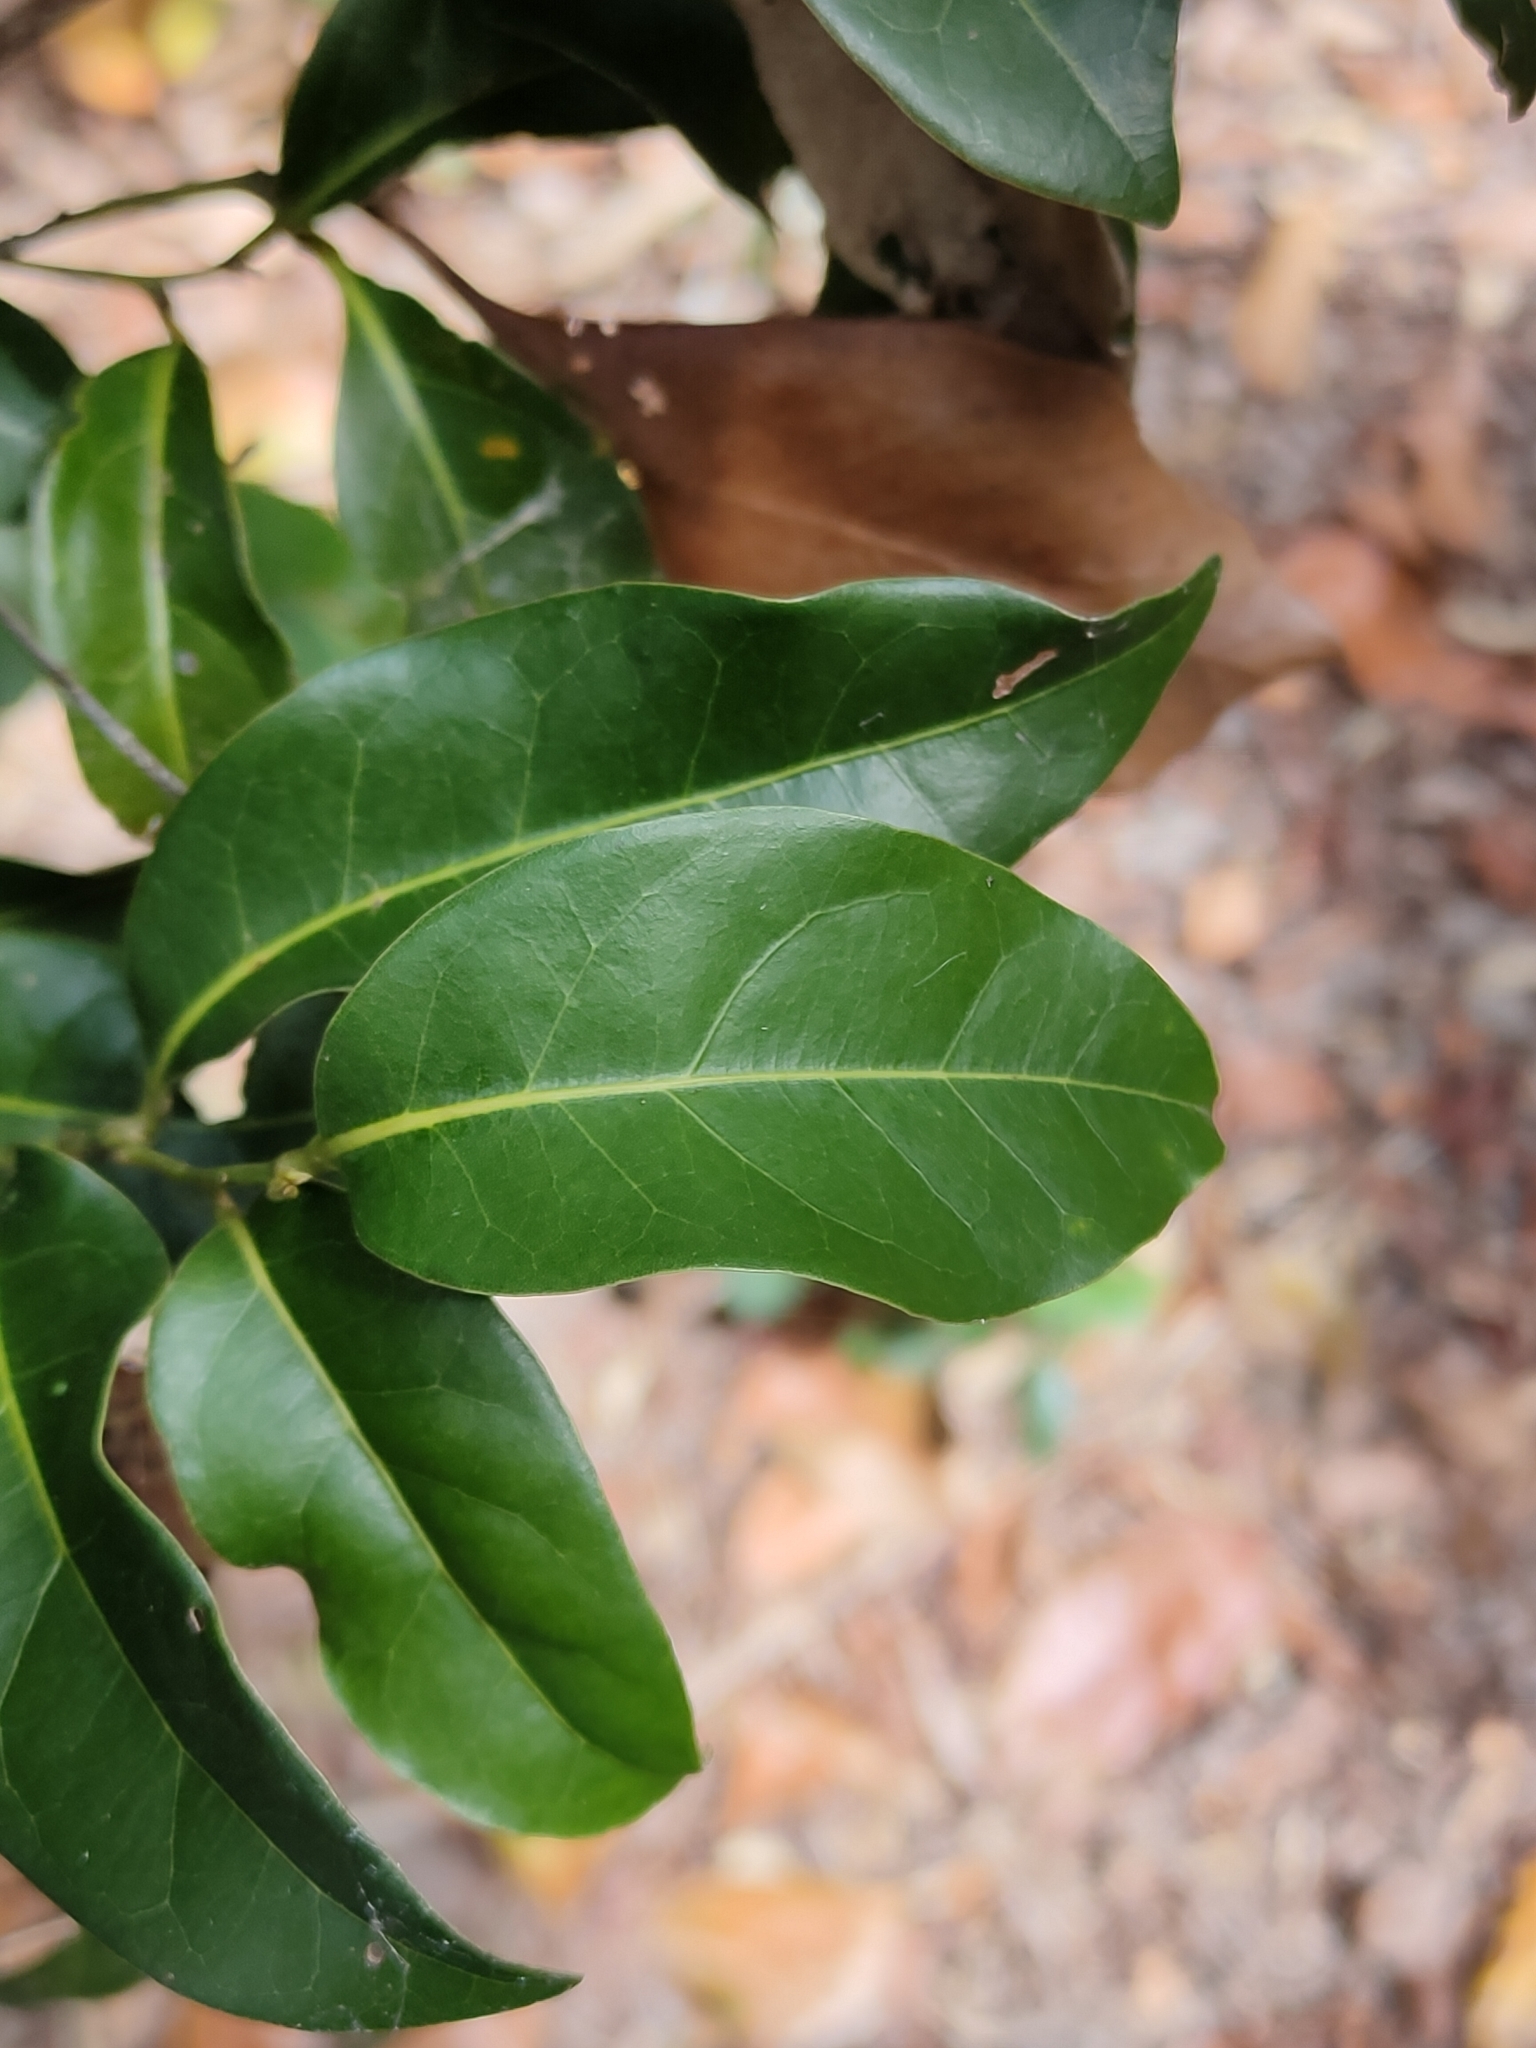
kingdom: Plantae
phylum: Tracheophyta
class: Magnoliopsida
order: Laurales
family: Lauraceae
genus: Cryptocarya
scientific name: Cryptocarya macdonaldii
